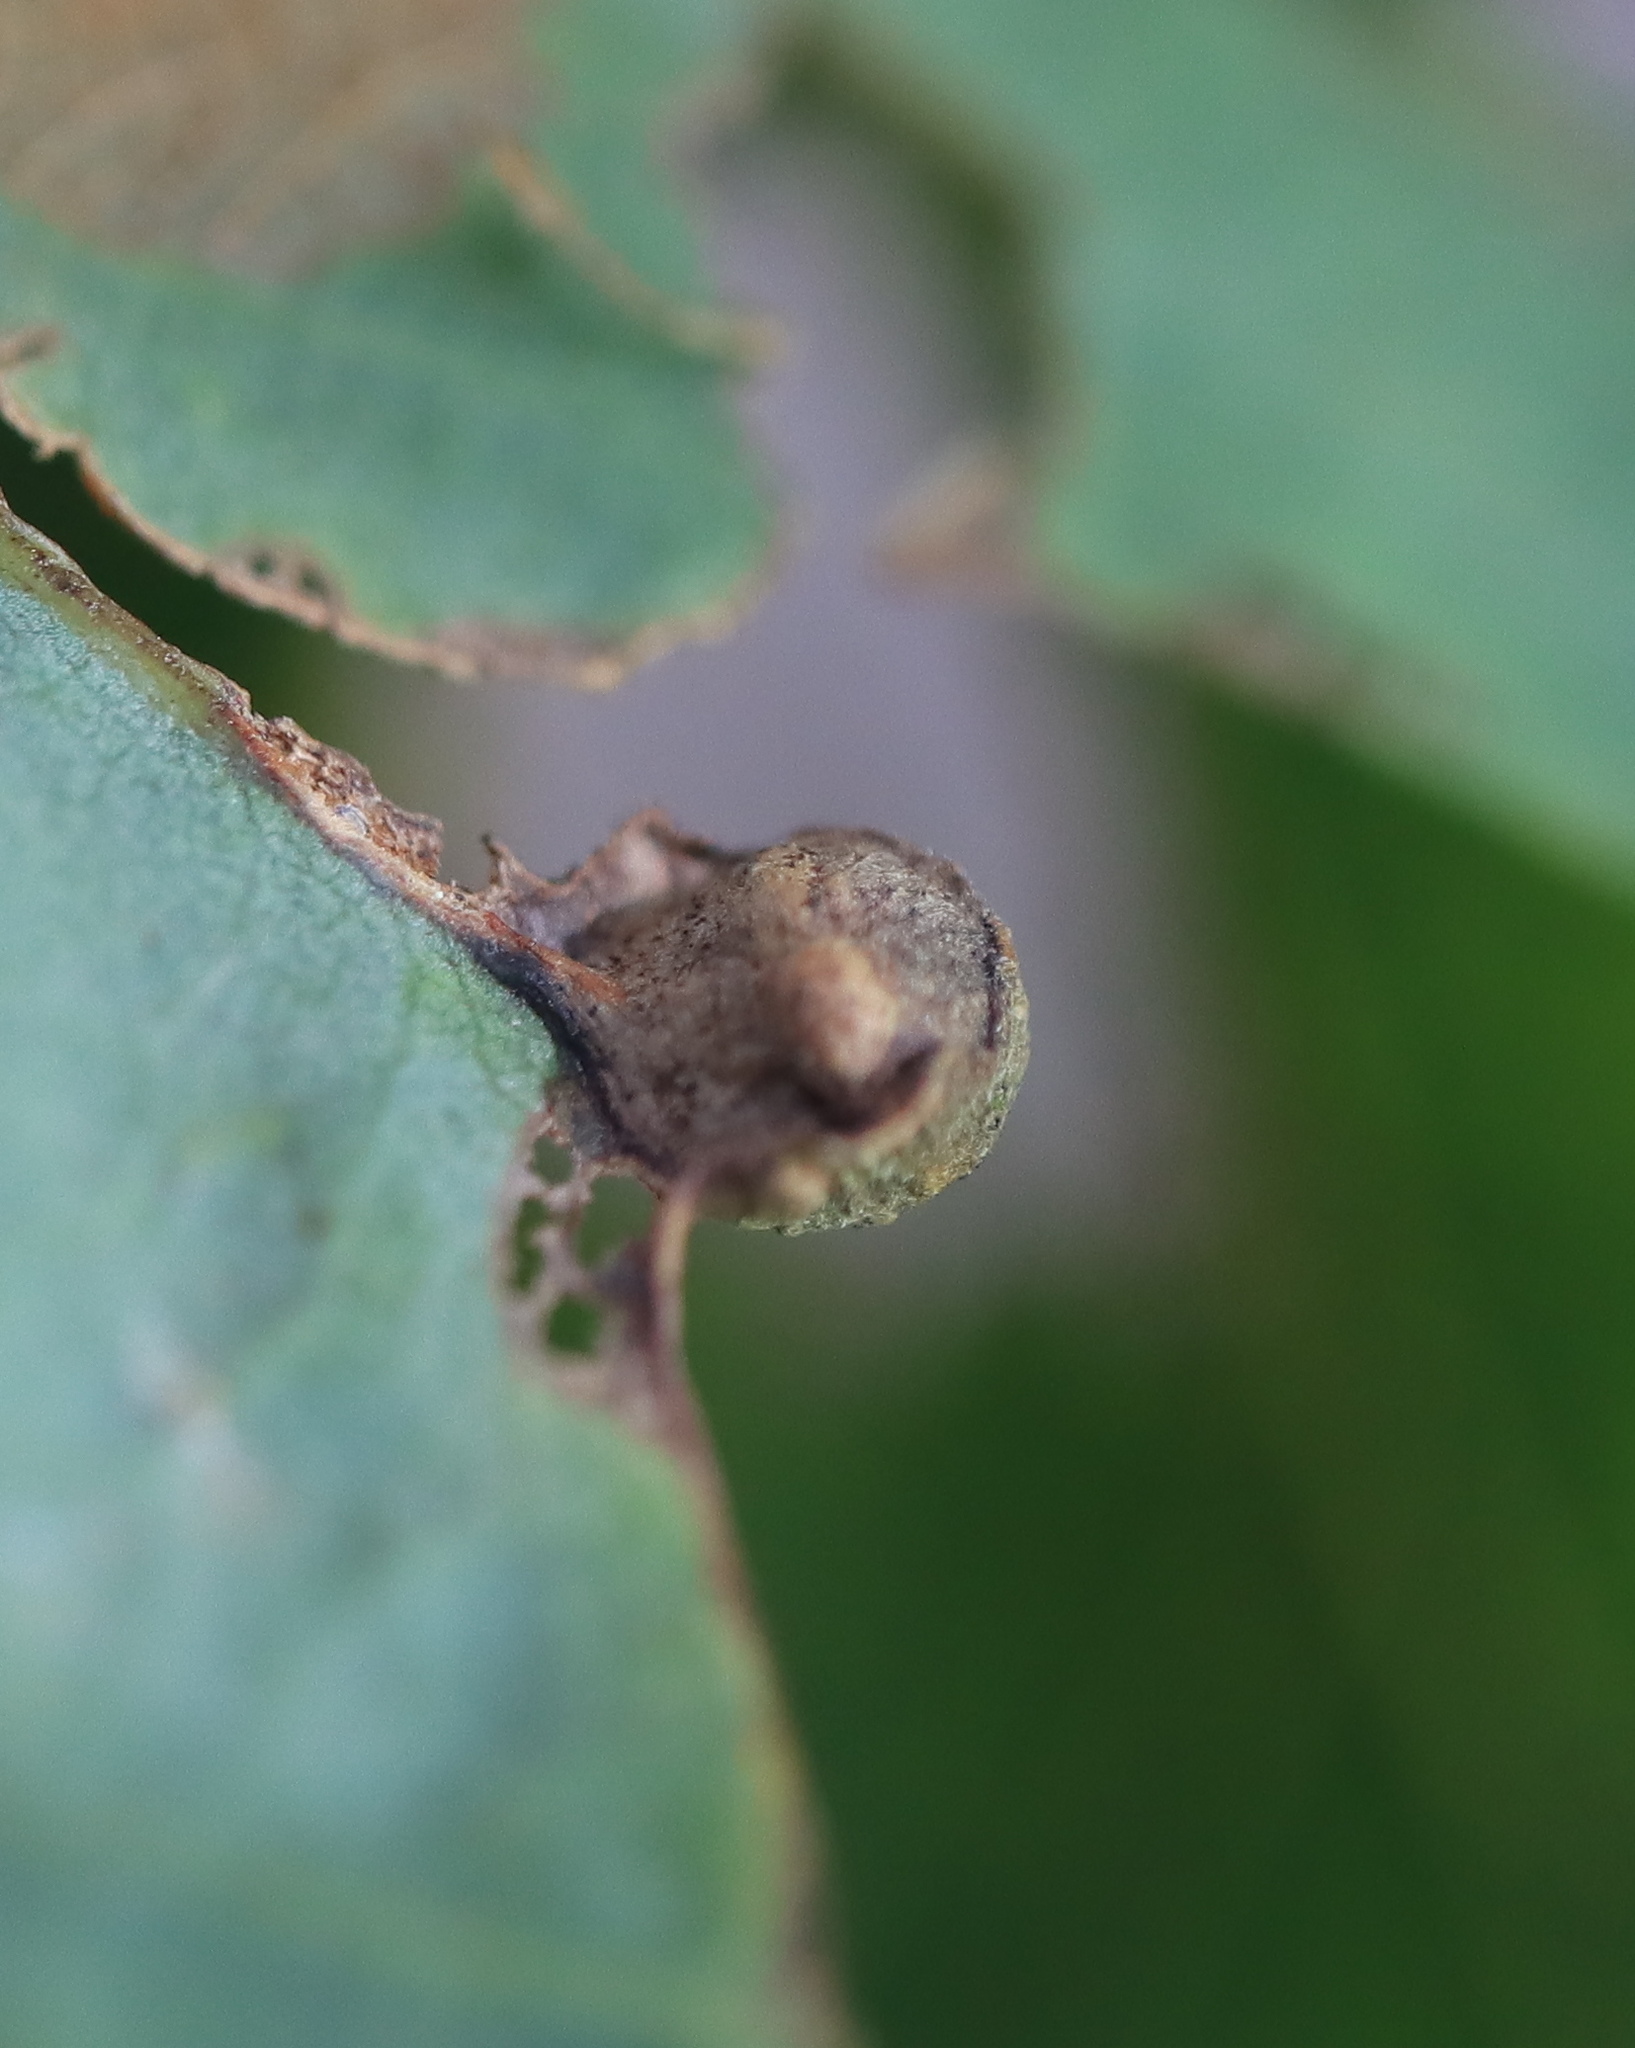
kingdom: Animalia
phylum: Arthropoda
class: Insecta
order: Hymenoptera
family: Cynipidae
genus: Andricus
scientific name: Andricus
